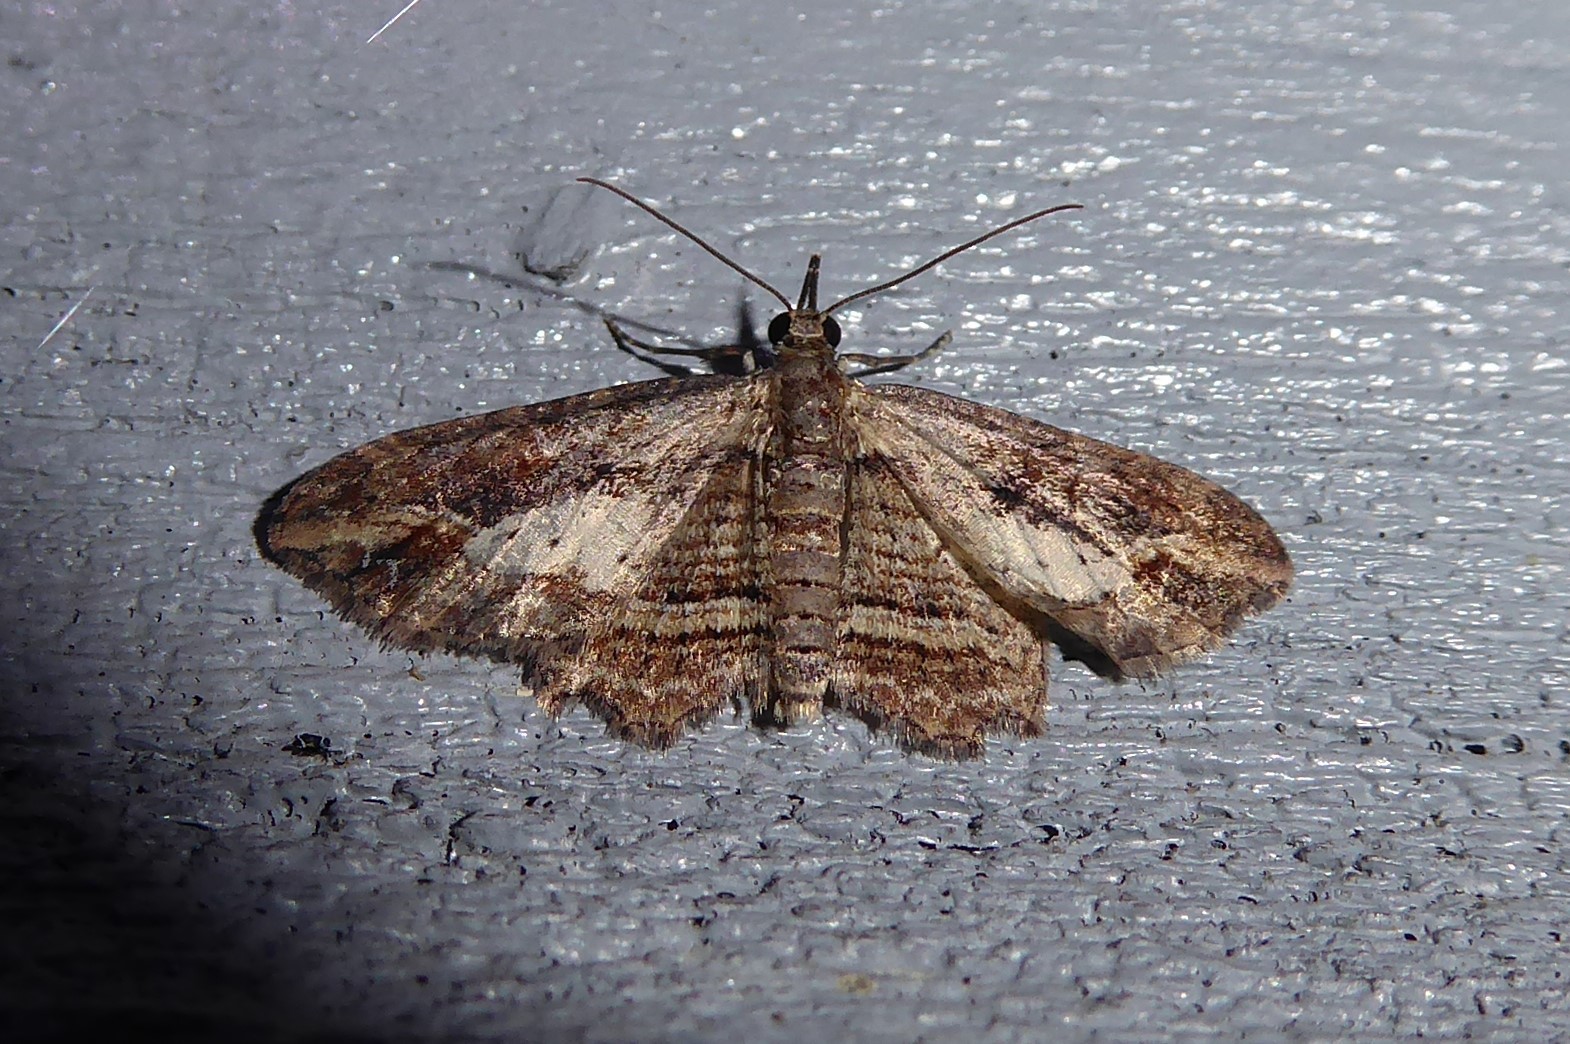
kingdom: Animalia
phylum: Arthropoda
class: Insecta
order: Lepidoptera
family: Geometridae
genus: Chloroclystis
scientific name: Chloroclystis filata
